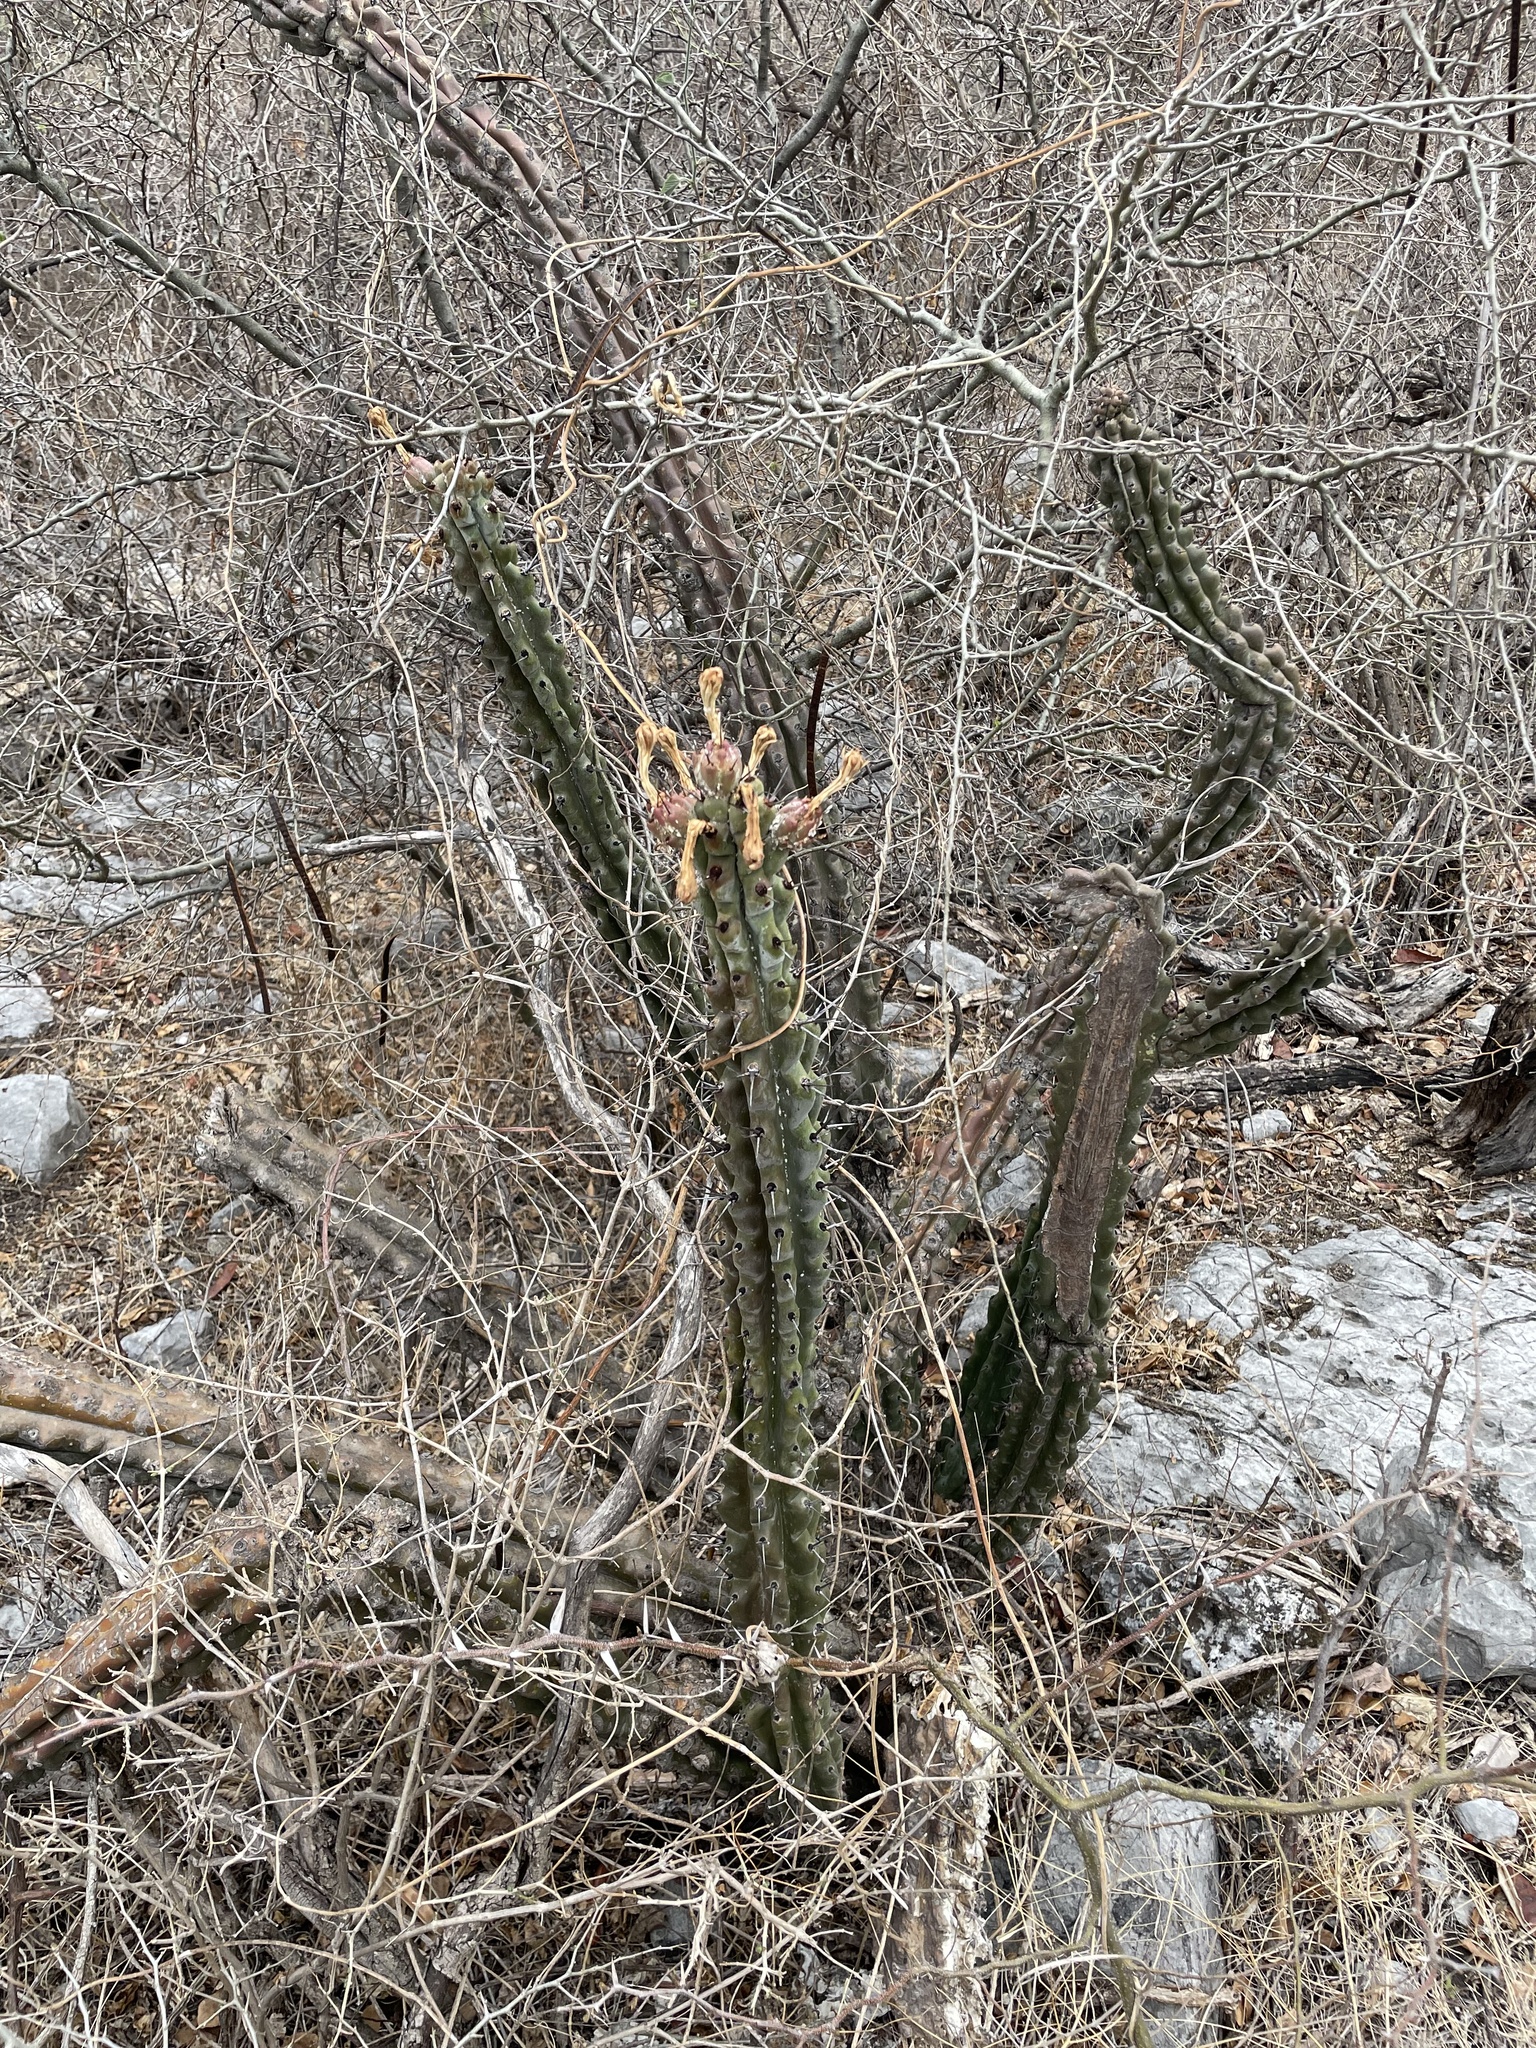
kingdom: Plantae
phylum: Tracheophyta
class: Magnoliopsida
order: Caryophyllales
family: Cactaceae
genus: Stenocereus
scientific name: Stenocereus beneckei
